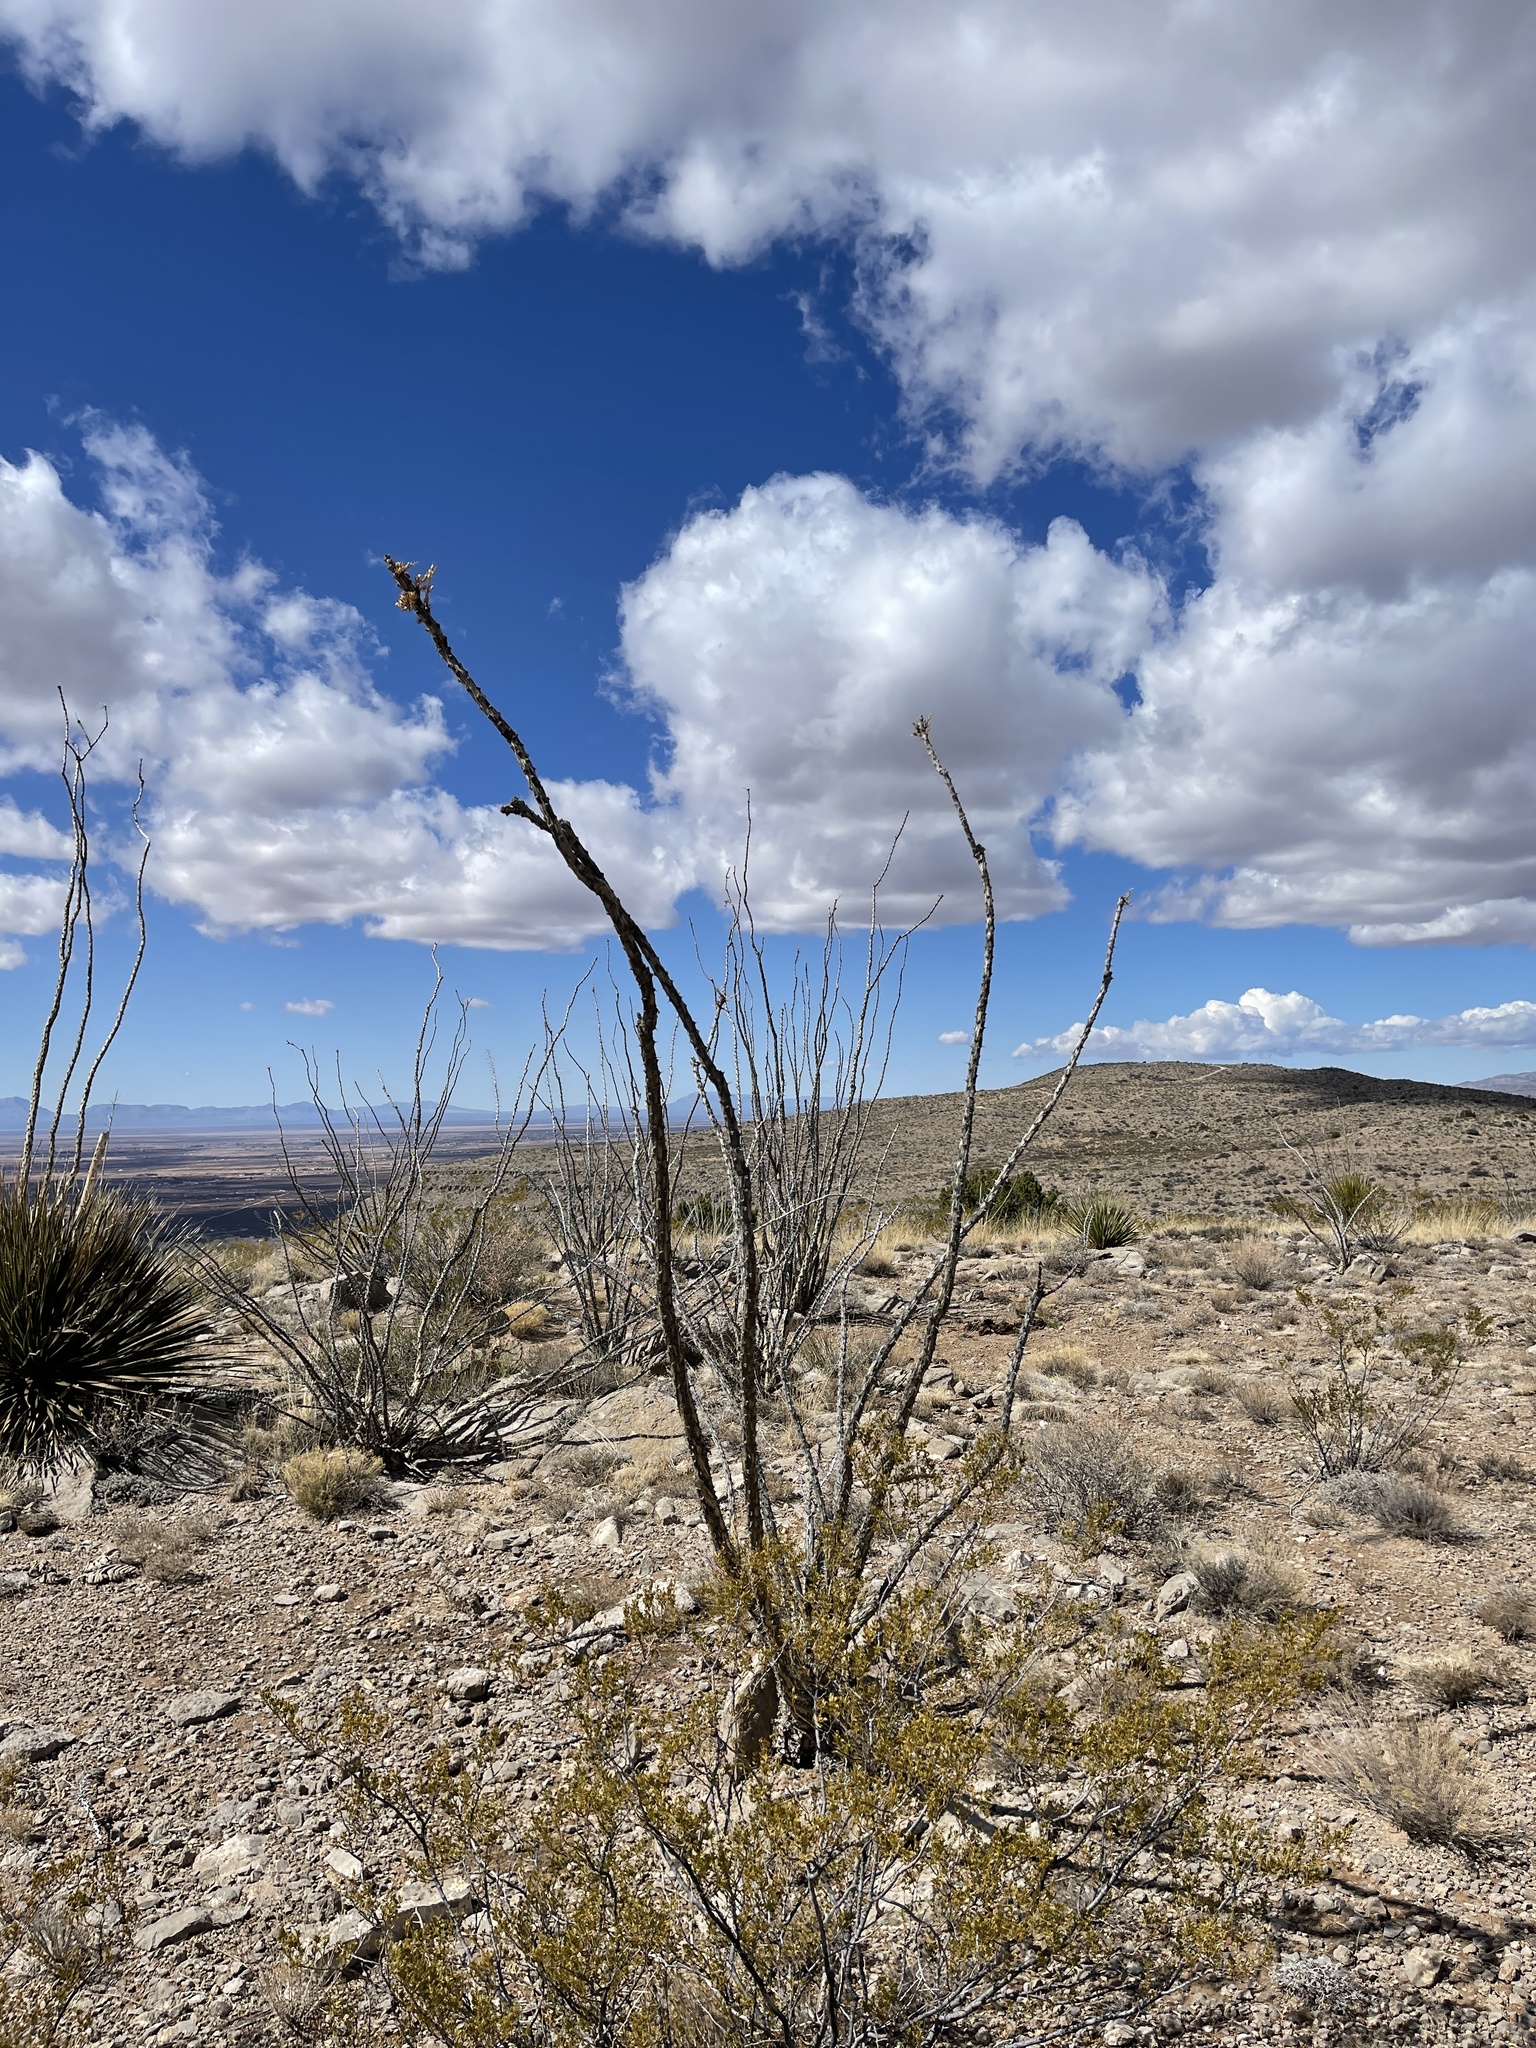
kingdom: Plantae
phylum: Tracheophyta
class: Magnoliopsida
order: Ericales
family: Fouquieriaceae
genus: Fouquieria
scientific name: Fouquieria splendens
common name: Vine-cactus
